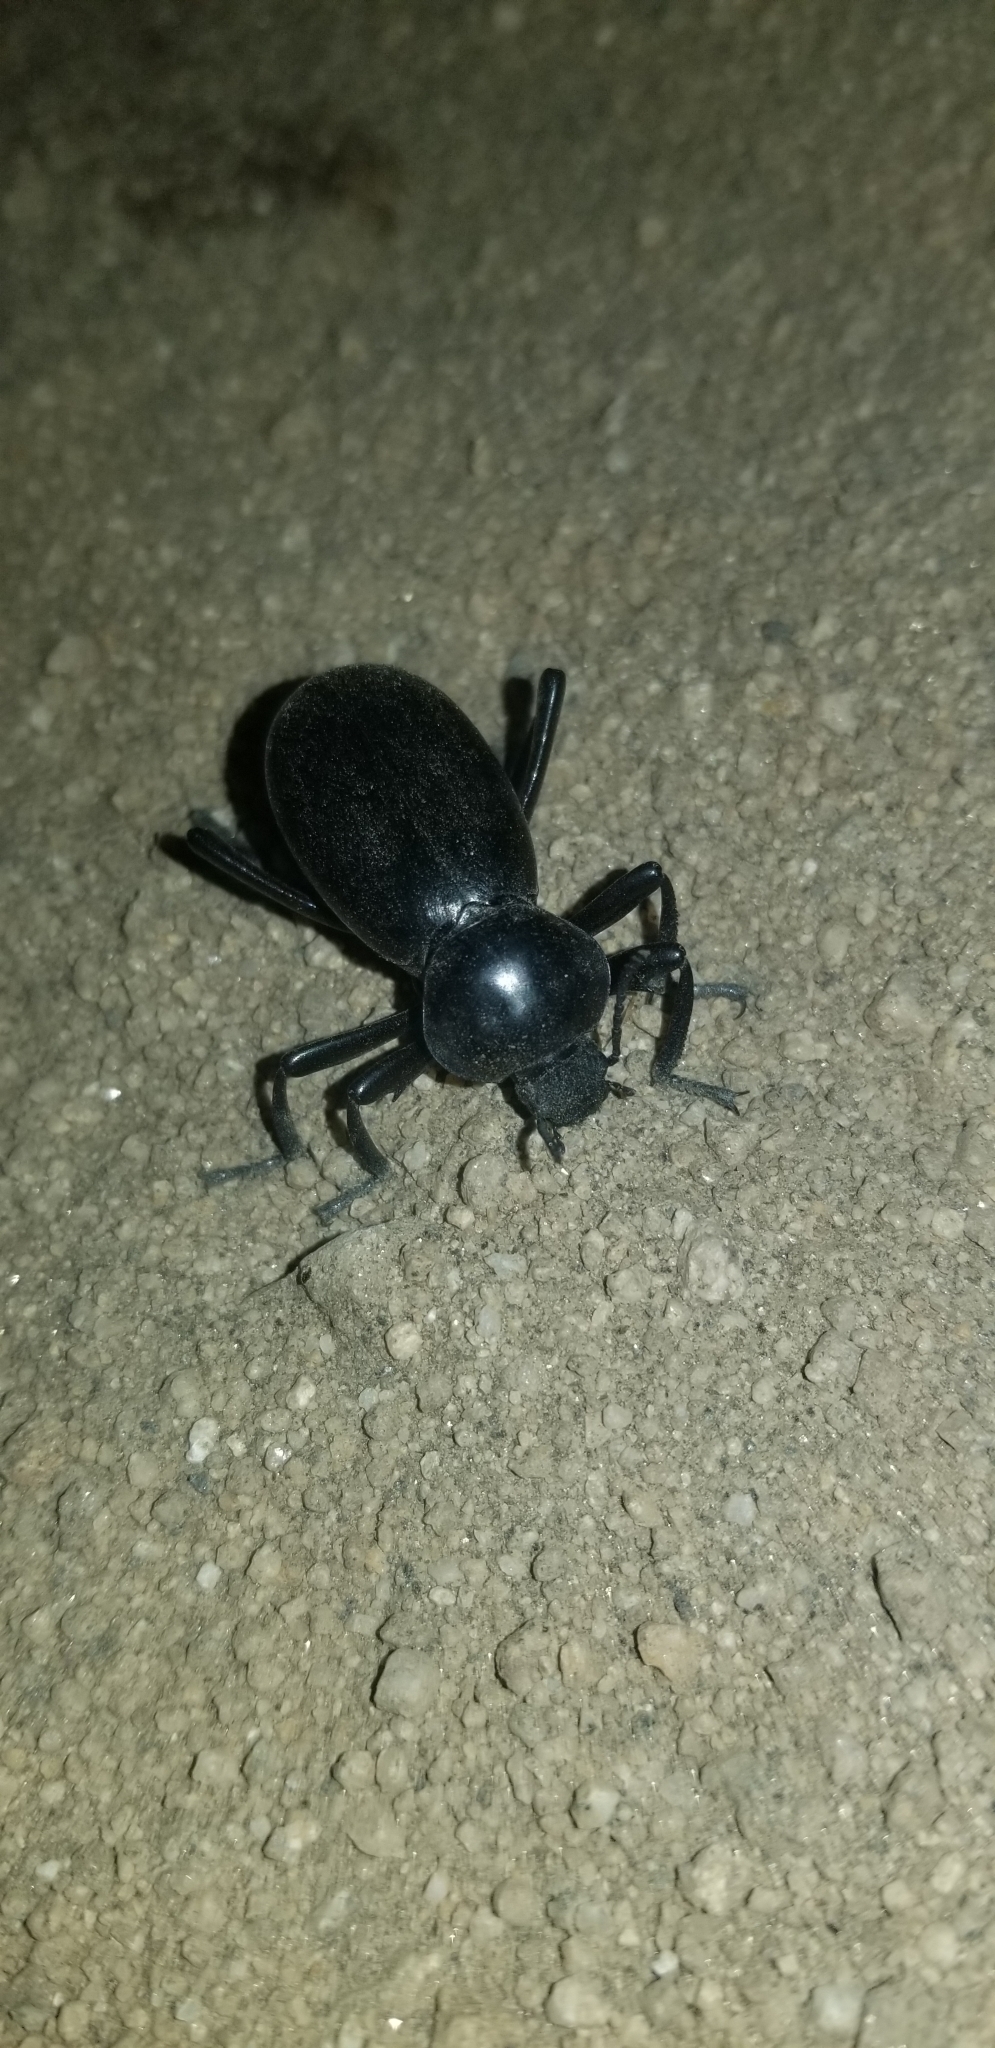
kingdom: Animalia
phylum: Arthropoda
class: Insecta
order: Coleoptera
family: Tenebrionidae
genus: Eleodes
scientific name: Eleodes grandicollis
